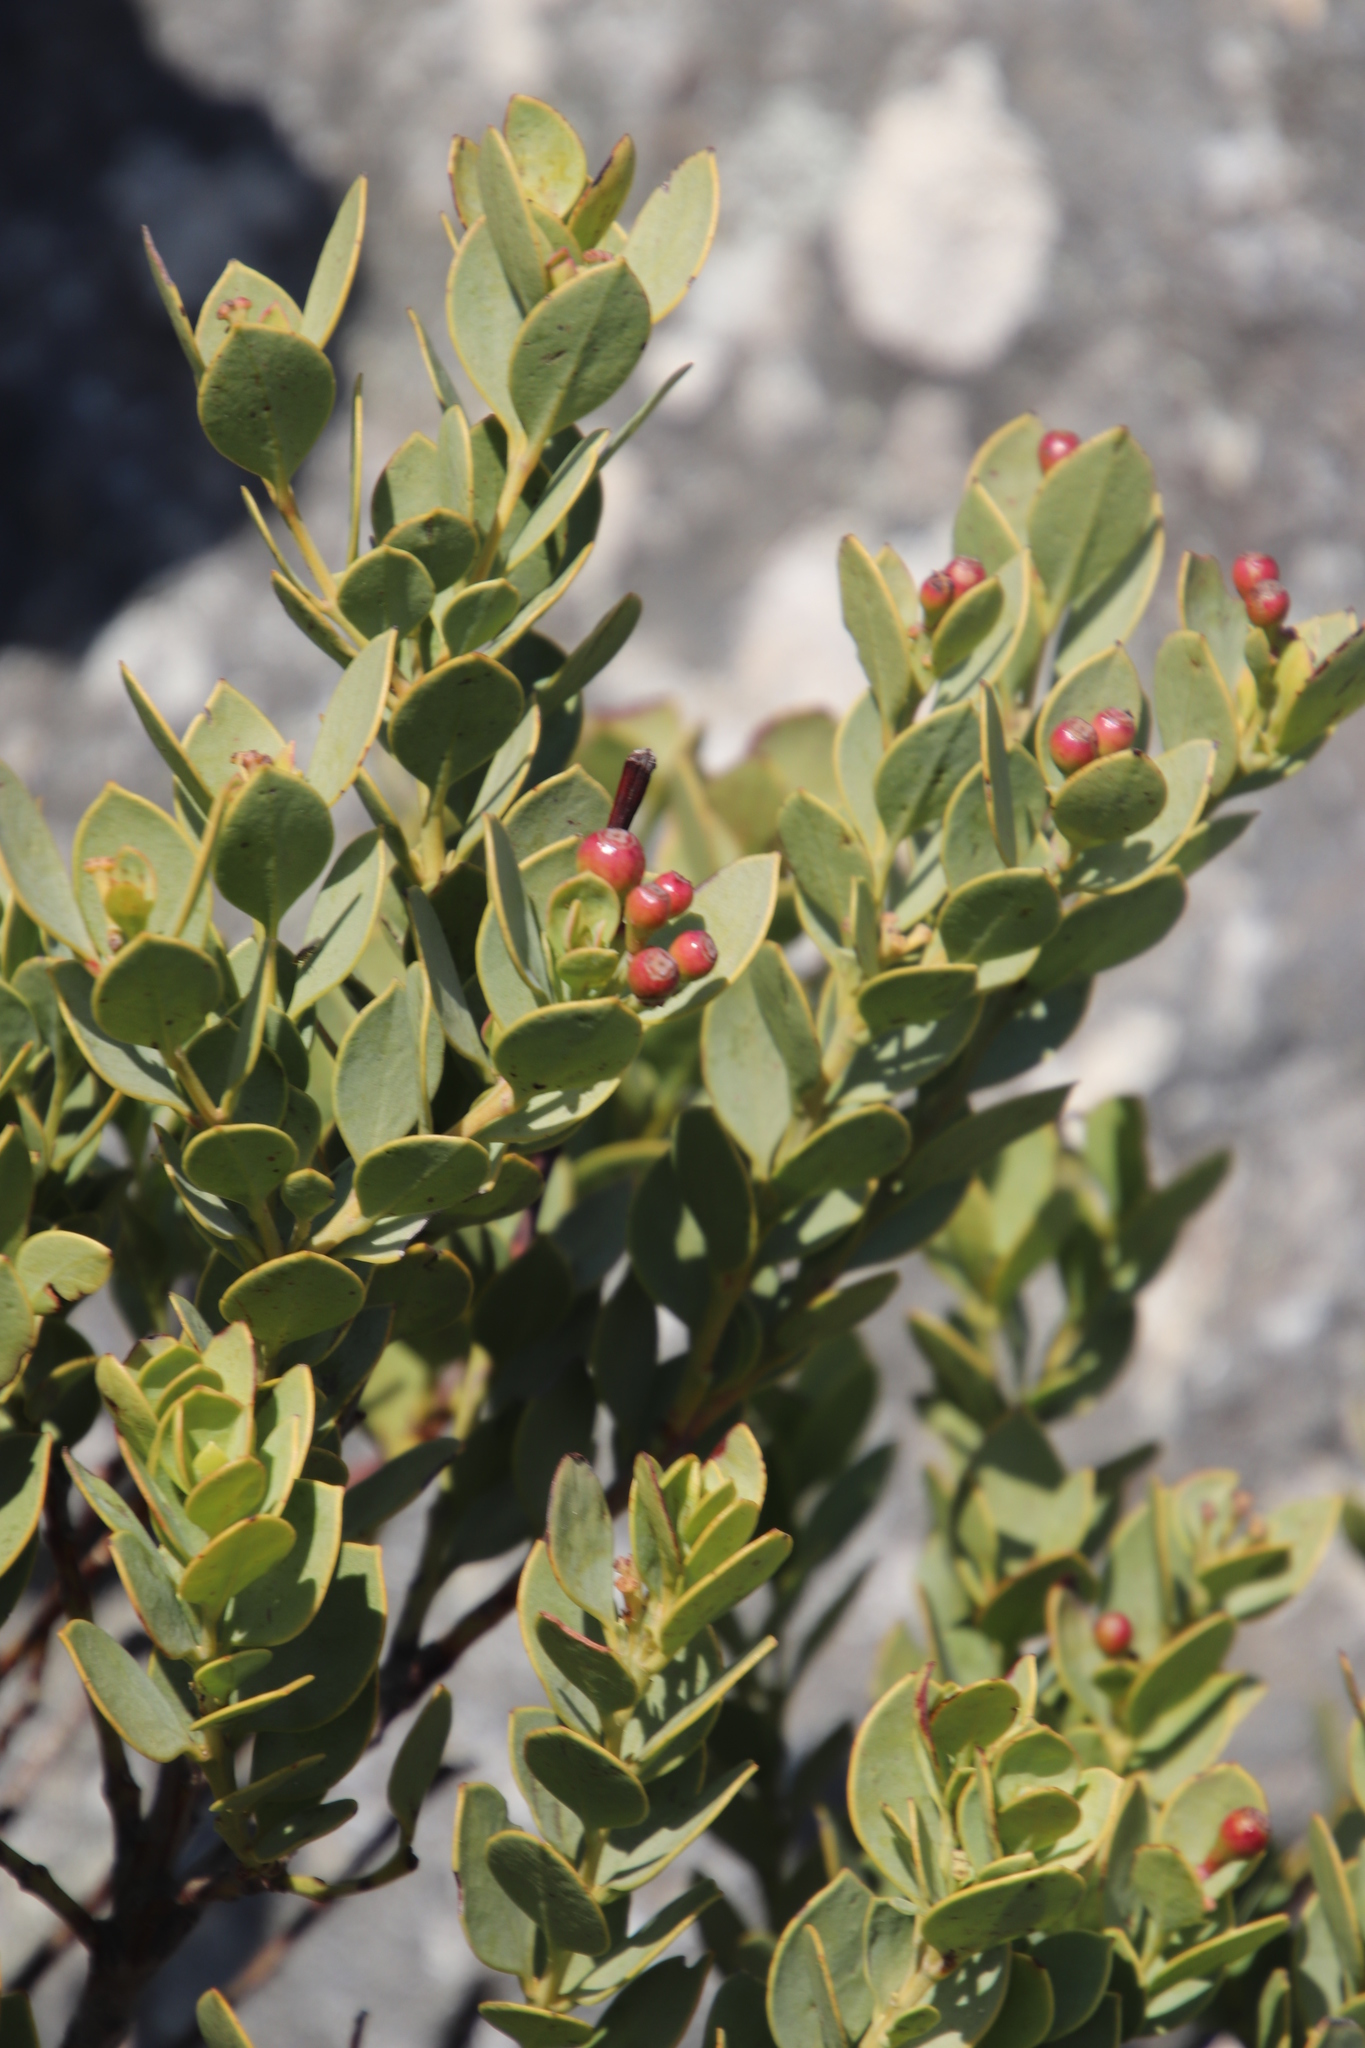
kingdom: Plantae
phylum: Tracheophyta
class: Magnoliopsida
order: Santalales
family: Santalaceae
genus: Osyris
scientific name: Osyris compressa
